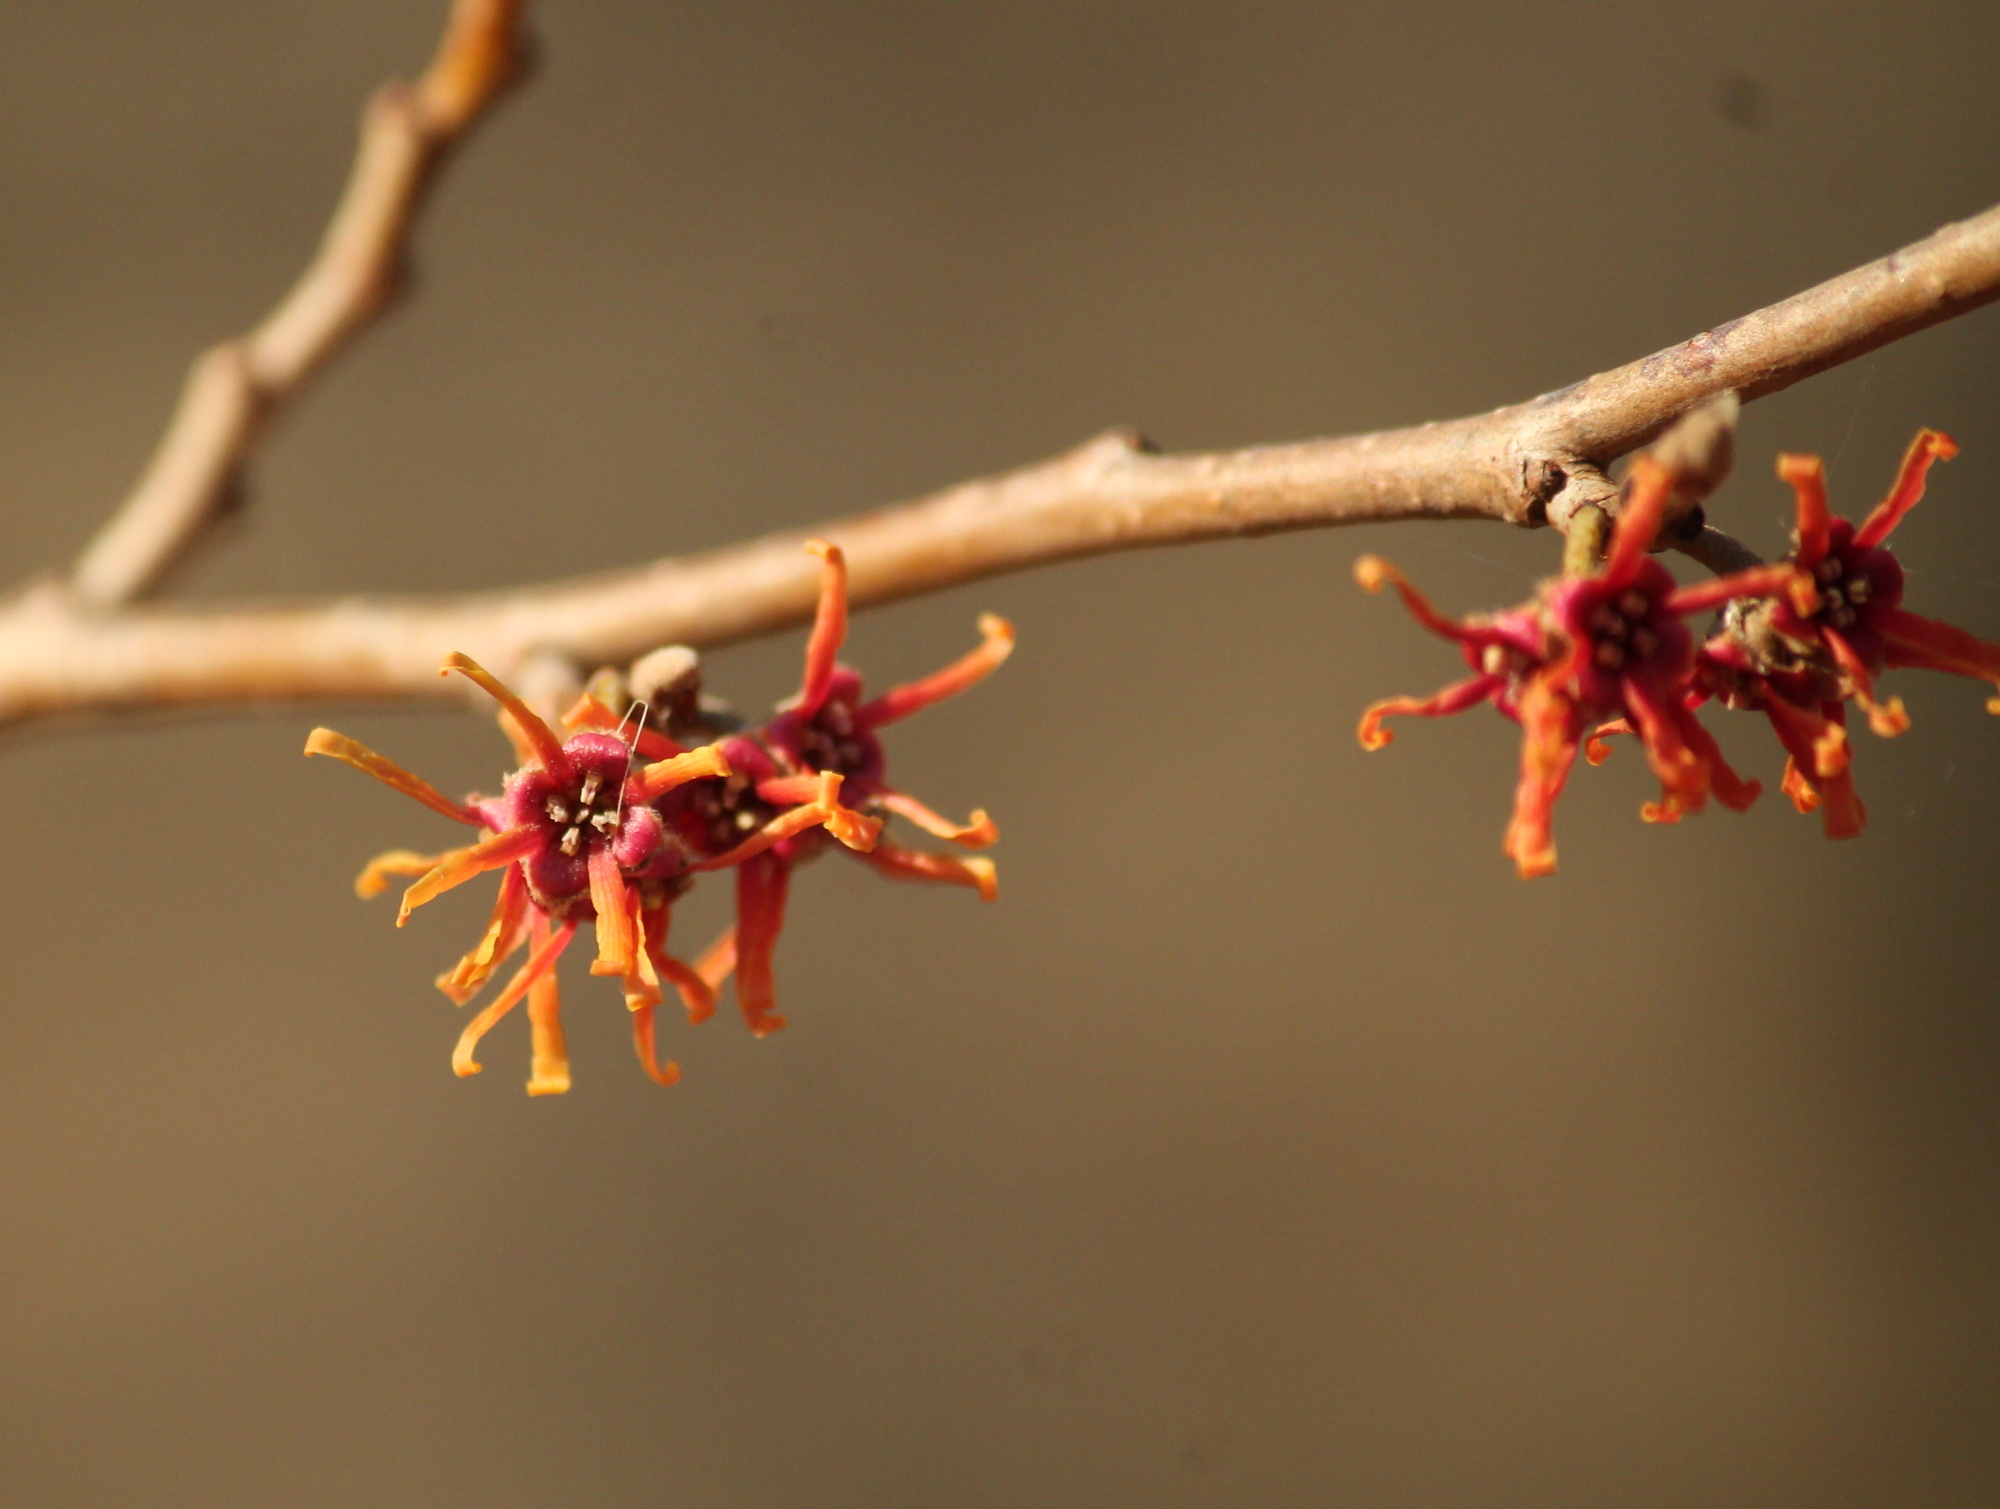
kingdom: Plantae
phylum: Tracheophyta
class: Magnoliopsida
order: Saxifragales
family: Hamamelidaceae
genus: Hamamelis
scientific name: Hamamelis vernalis
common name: Ozark witch-hazel
